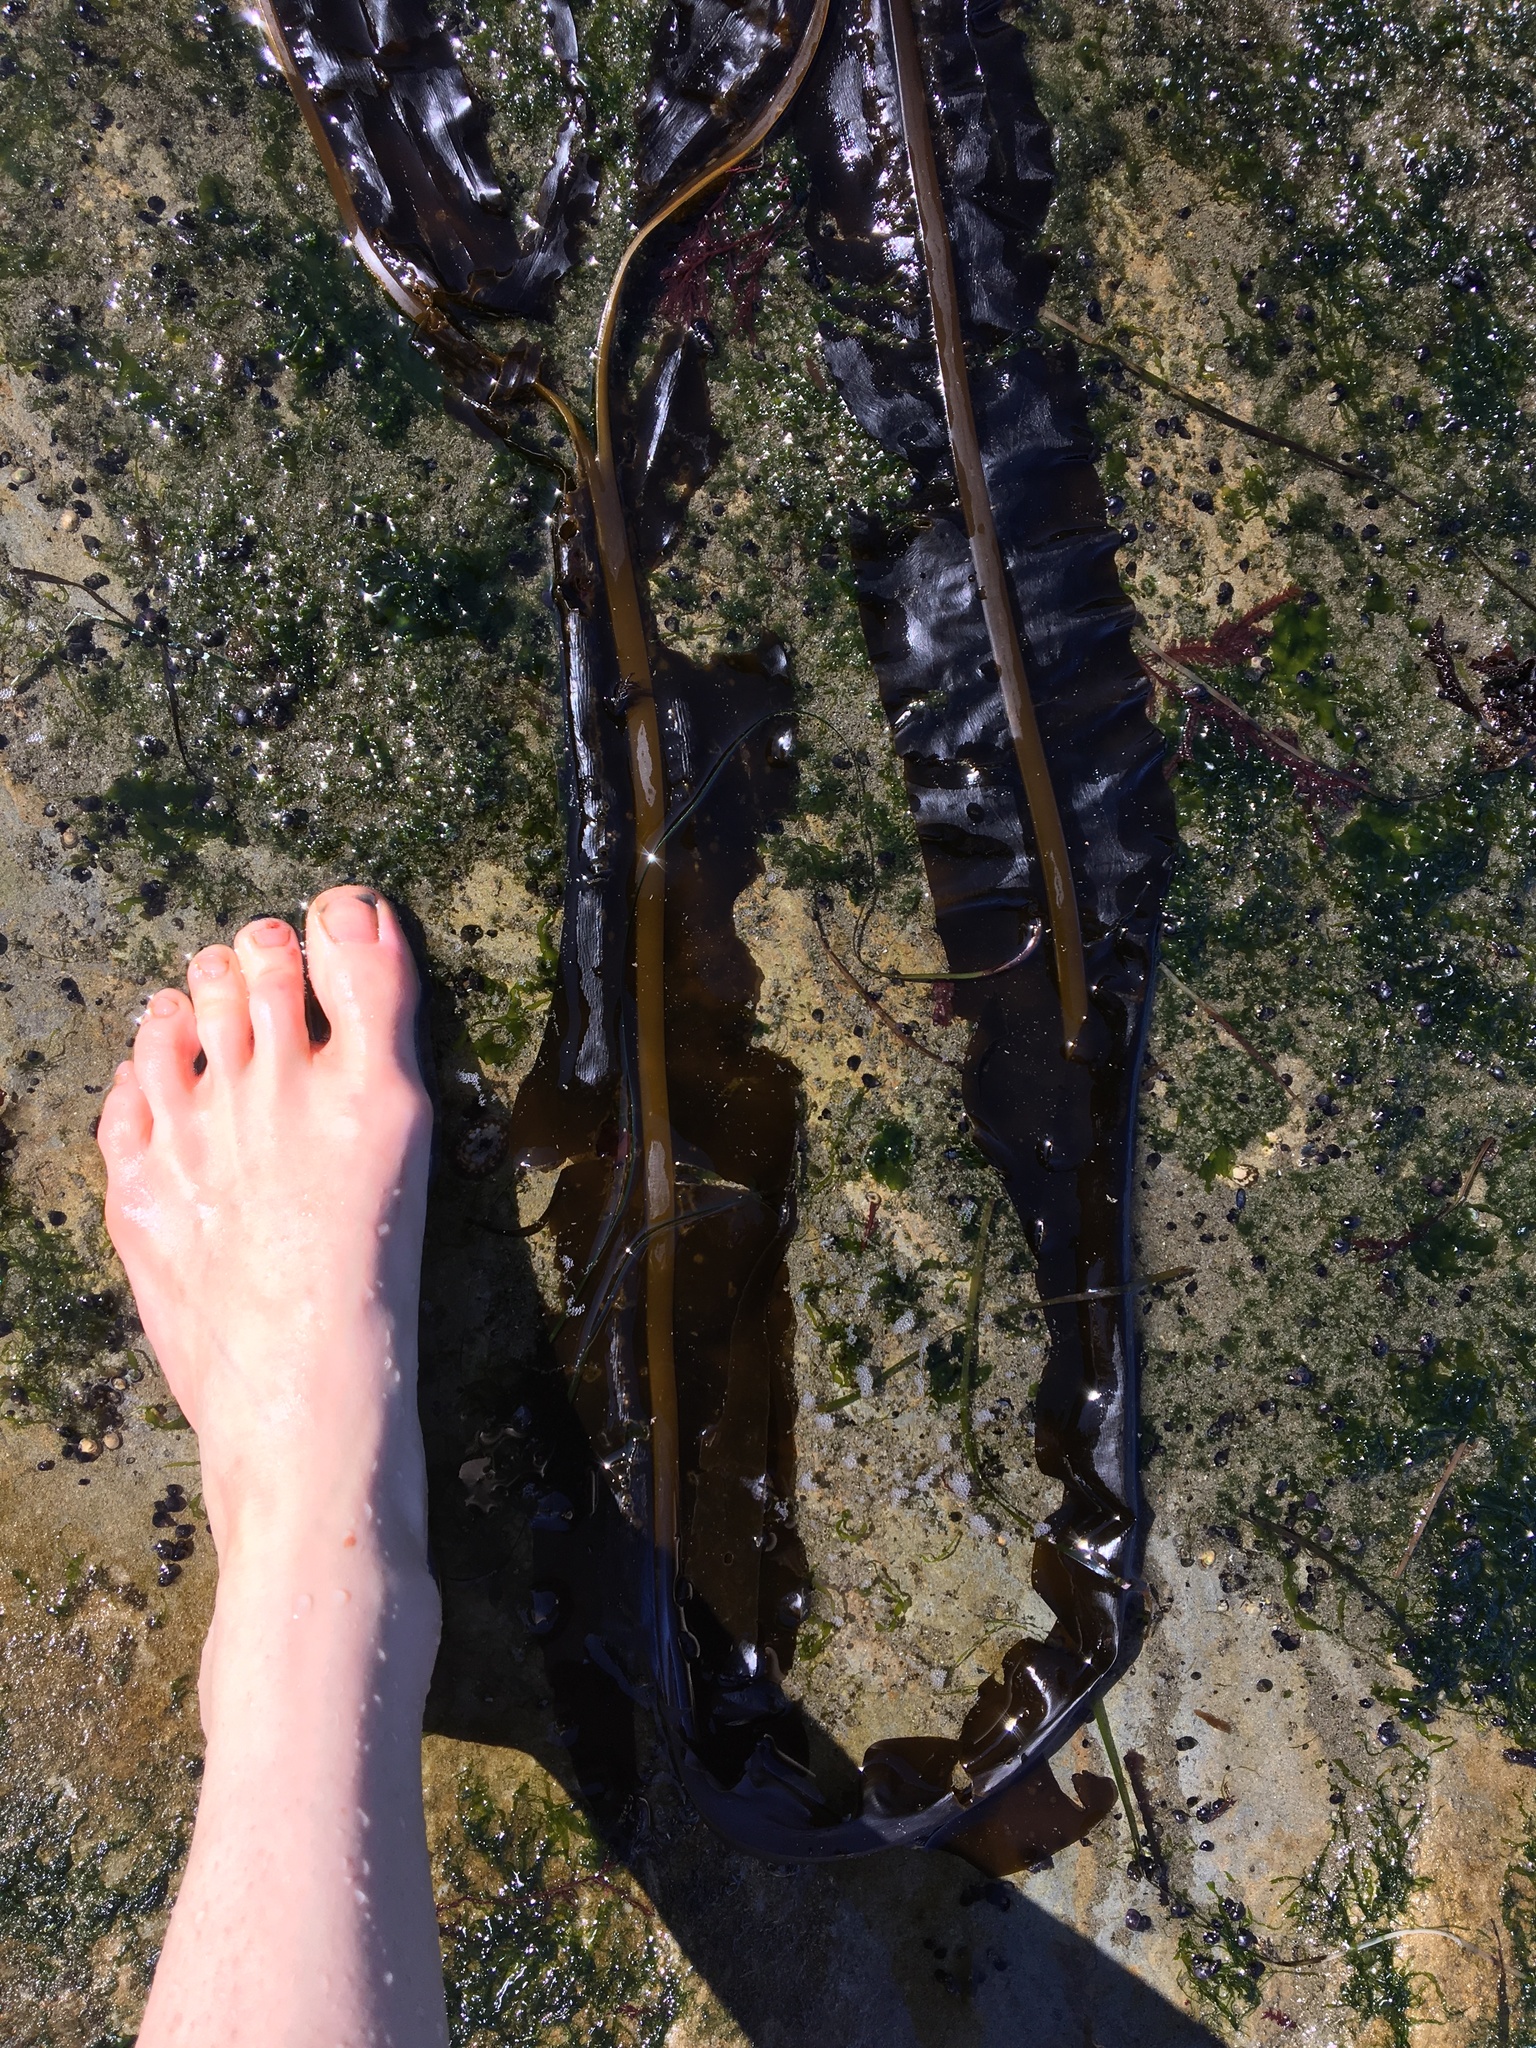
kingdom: Chromista
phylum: Ochrophyta
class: Phaeophyceae
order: Laminariales
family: Alariaceae
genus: Alaria
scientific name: Alaria marginata
